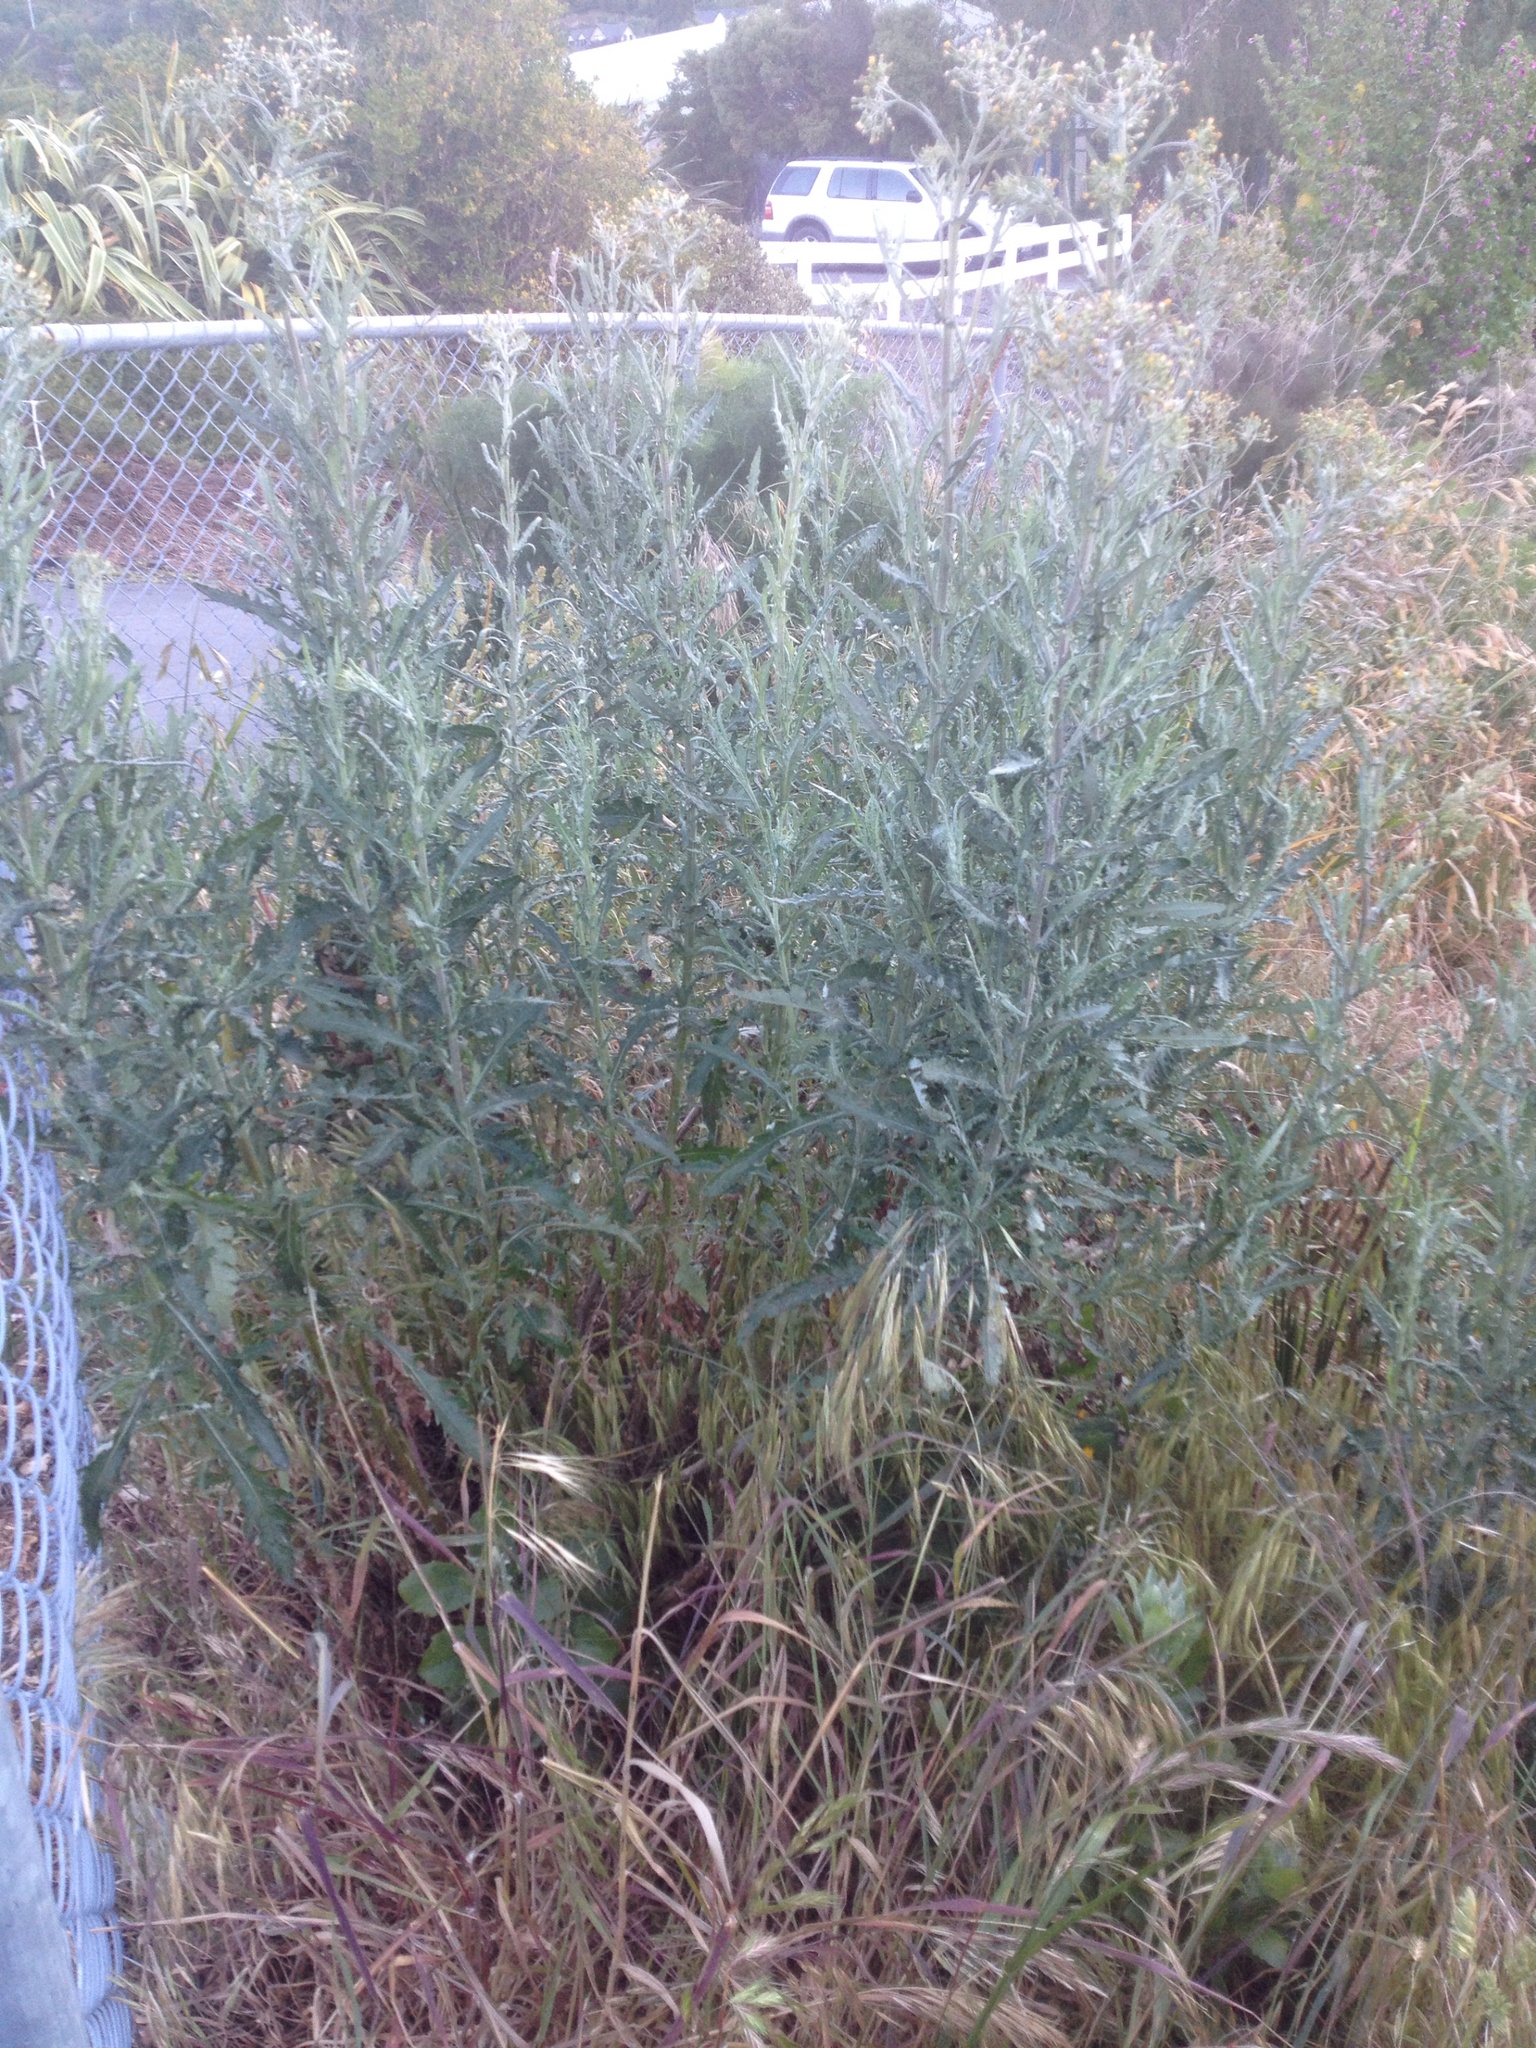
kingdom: Plantae
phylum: Tracheophyta
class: Magnoliopsida
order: Asterales
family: Asteraceae
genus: Senecio
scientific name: Senecio glomeratus
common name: Cutleaf burnweed
